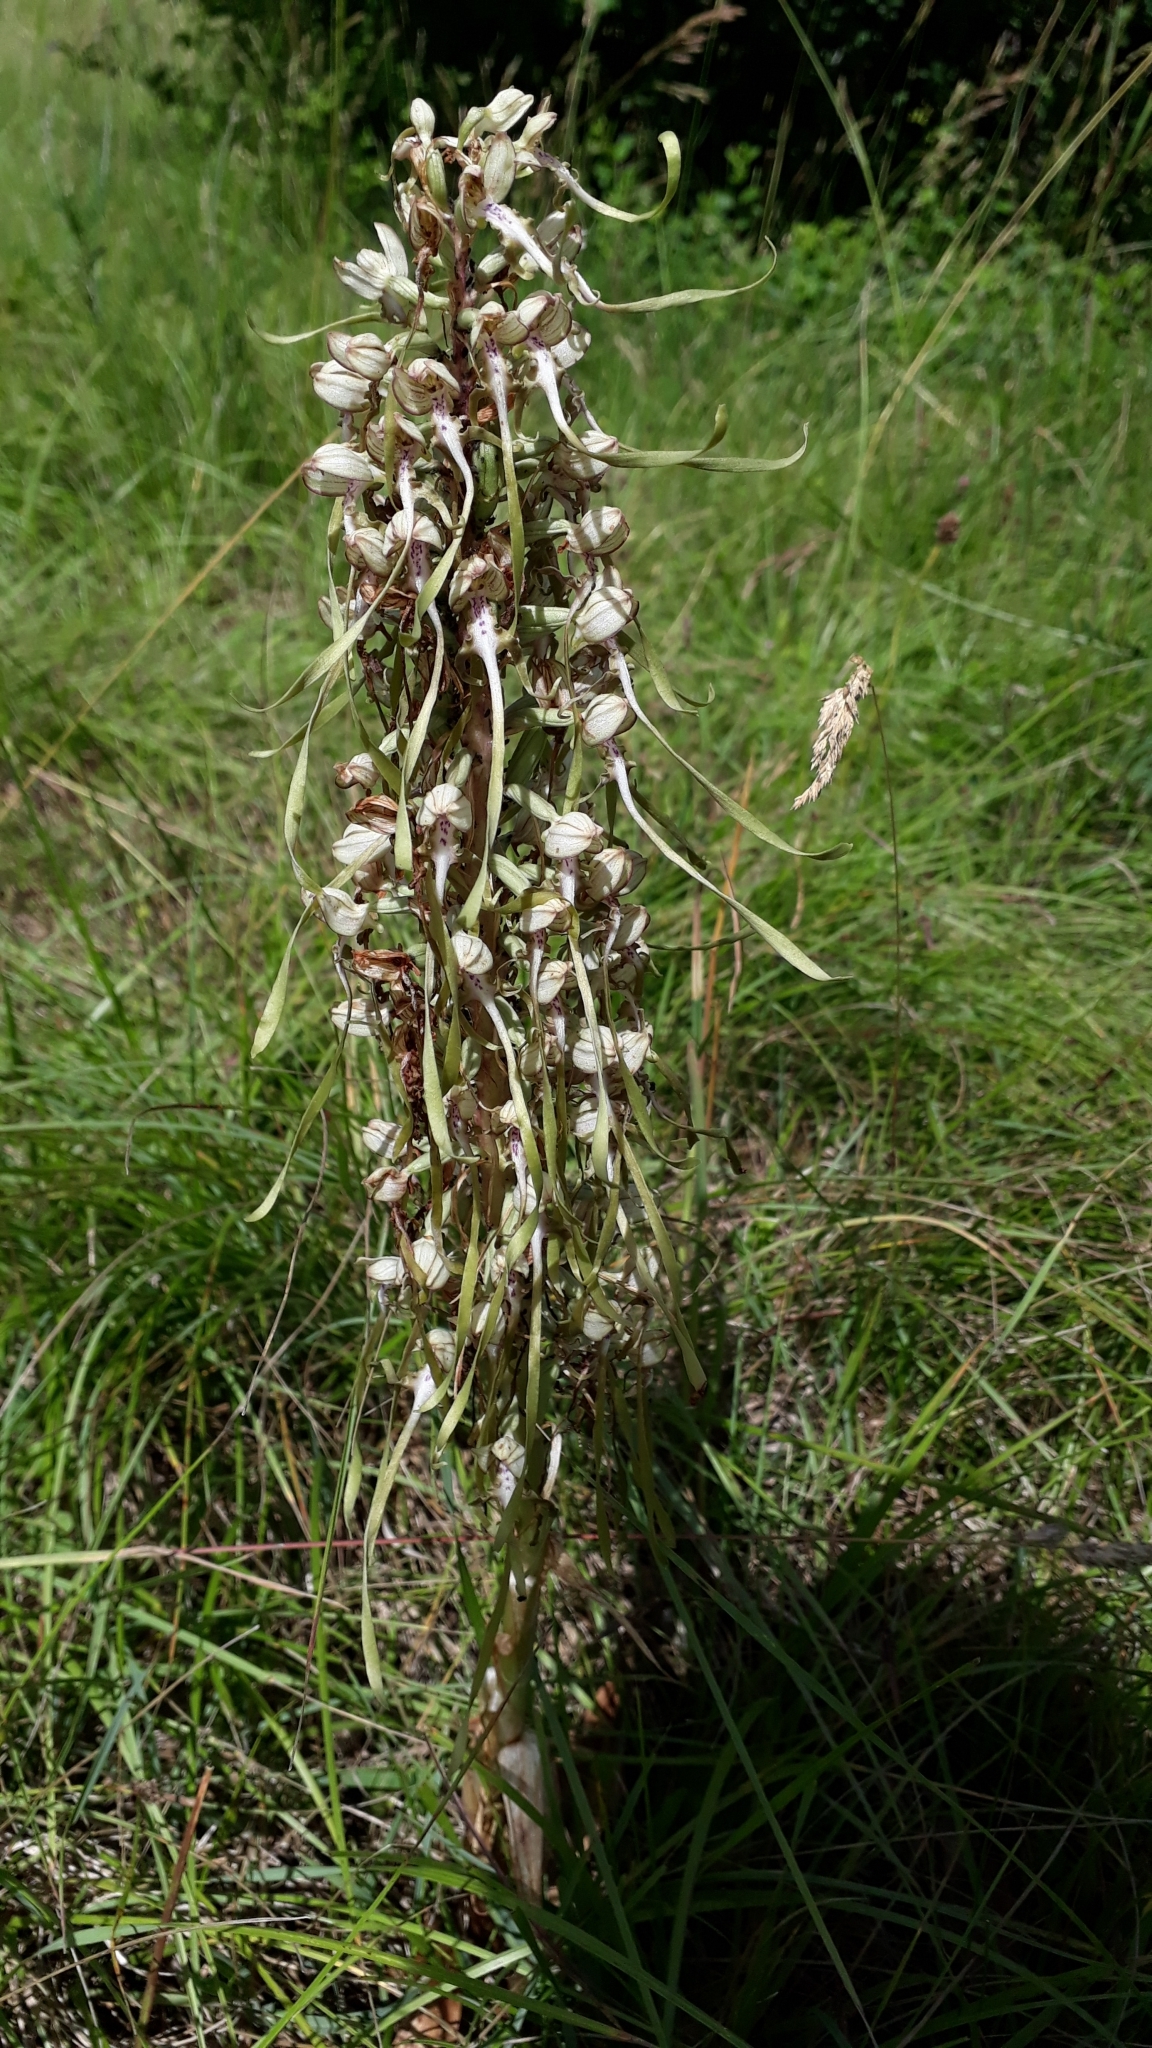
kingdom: Plantae
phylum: Tracheophyta
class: Liliopsida
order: Asparagales
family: Orchidaceae
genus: Himantoglossum
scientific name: Himantoglossum hircinum
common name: Lizard orchid
